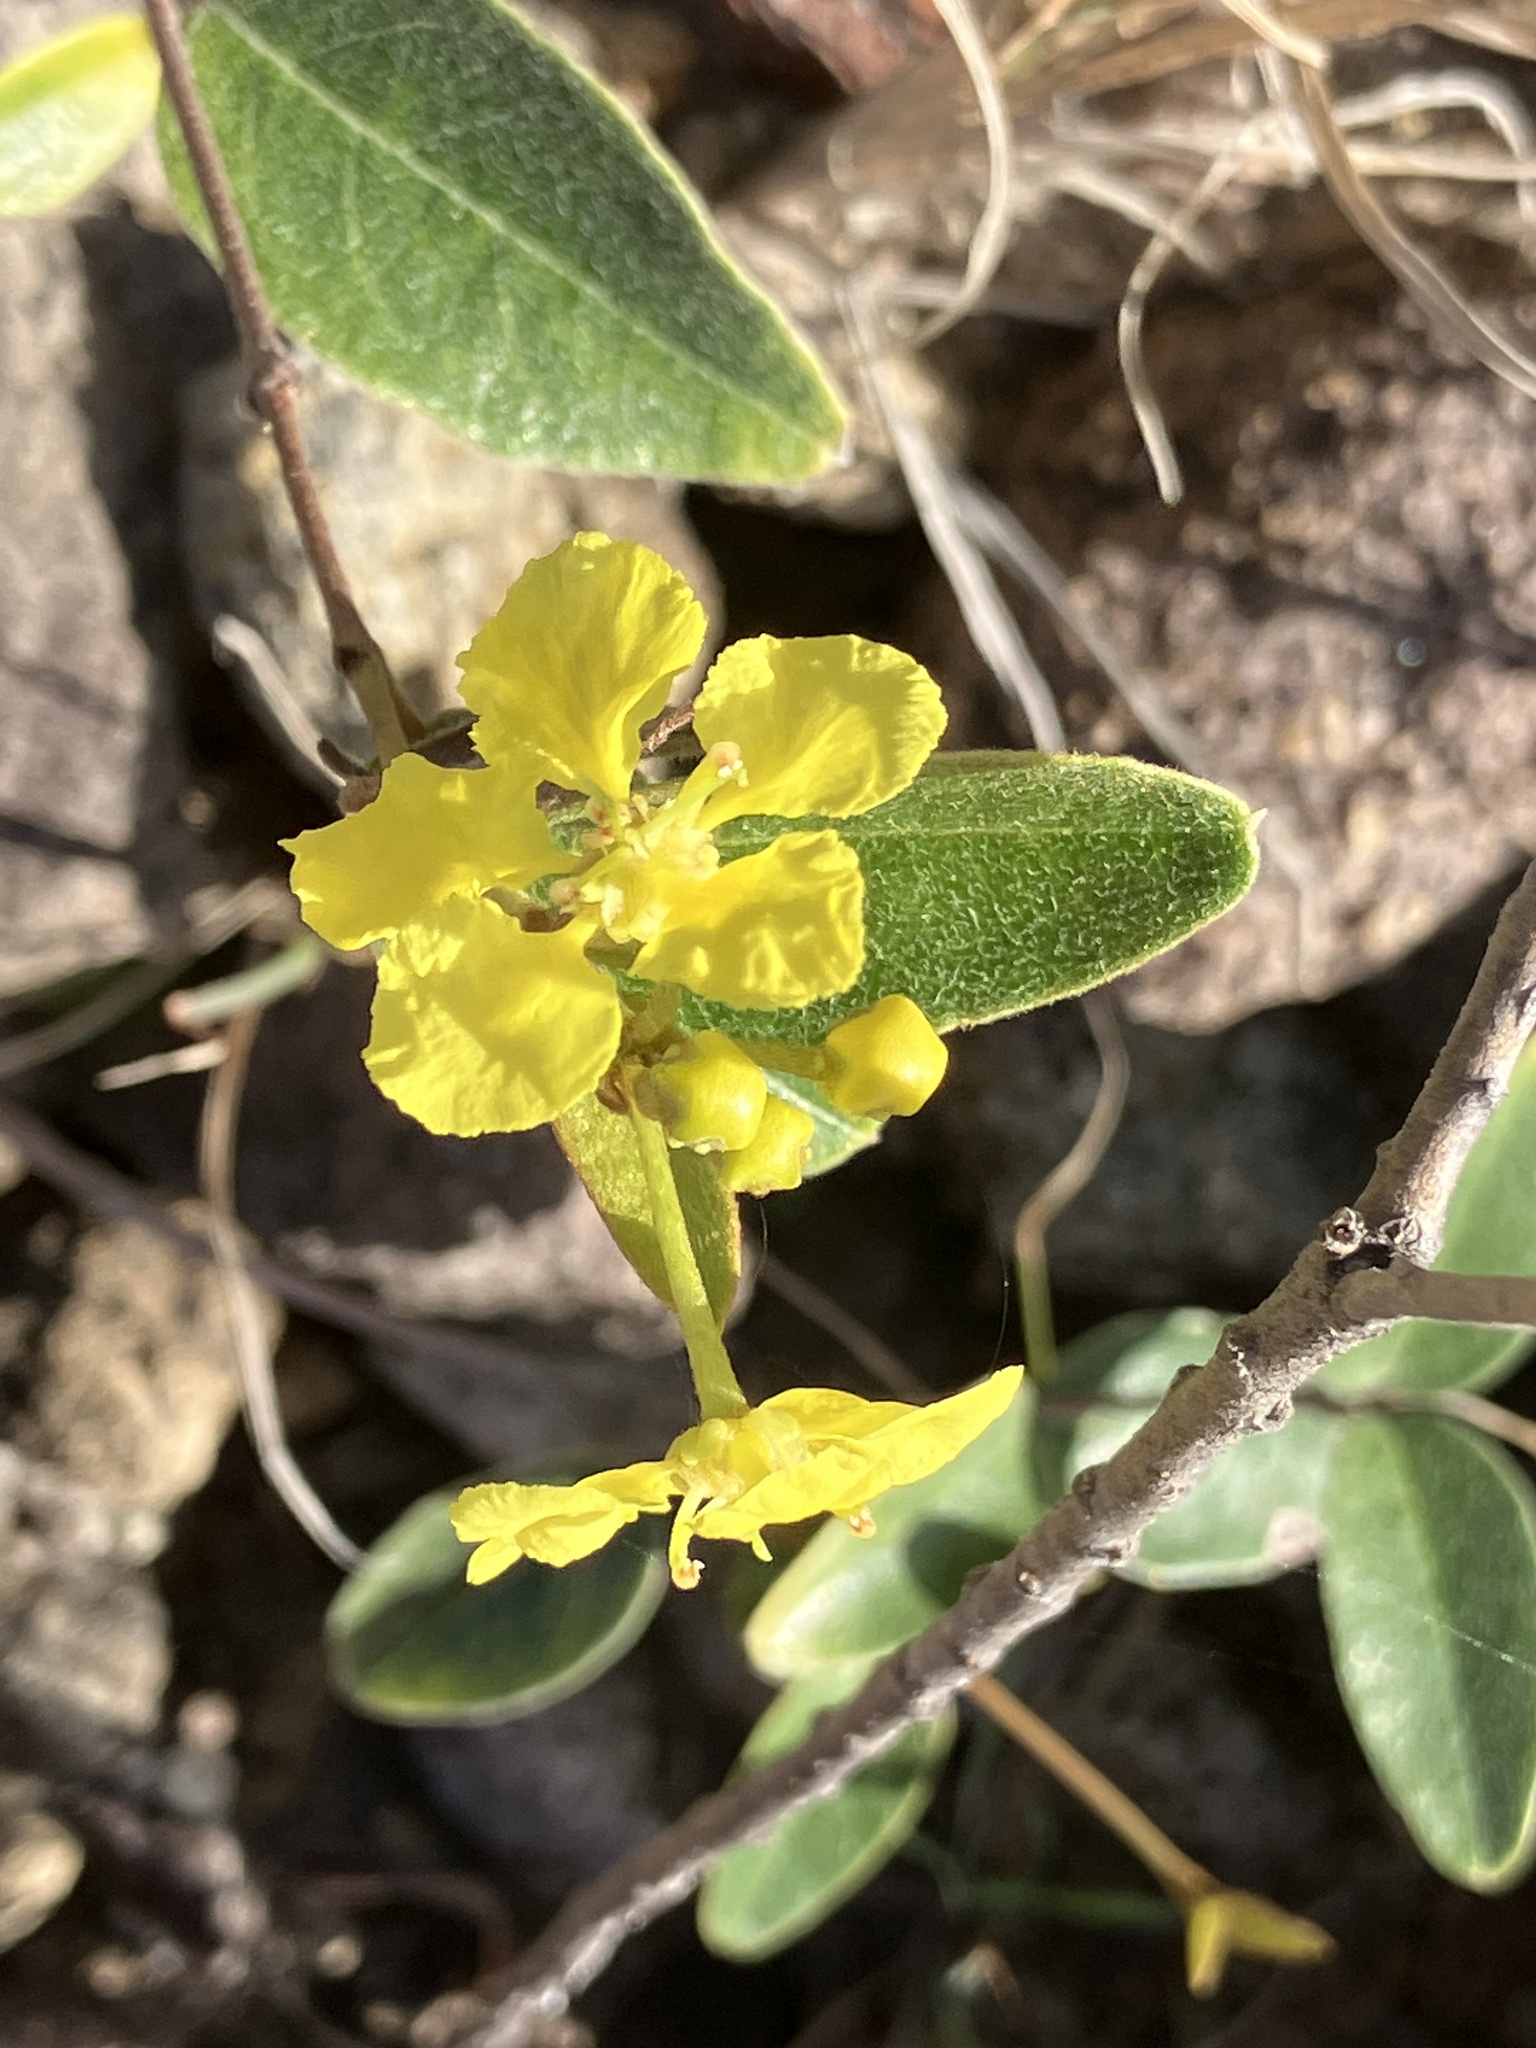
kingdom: Plantae
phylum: Tracheophyta
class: Magnoliopsida
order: Malpighiales
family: Malpighiaceae
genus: Stigmaphyllon
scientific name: Stigmaphyllon diversifolium
